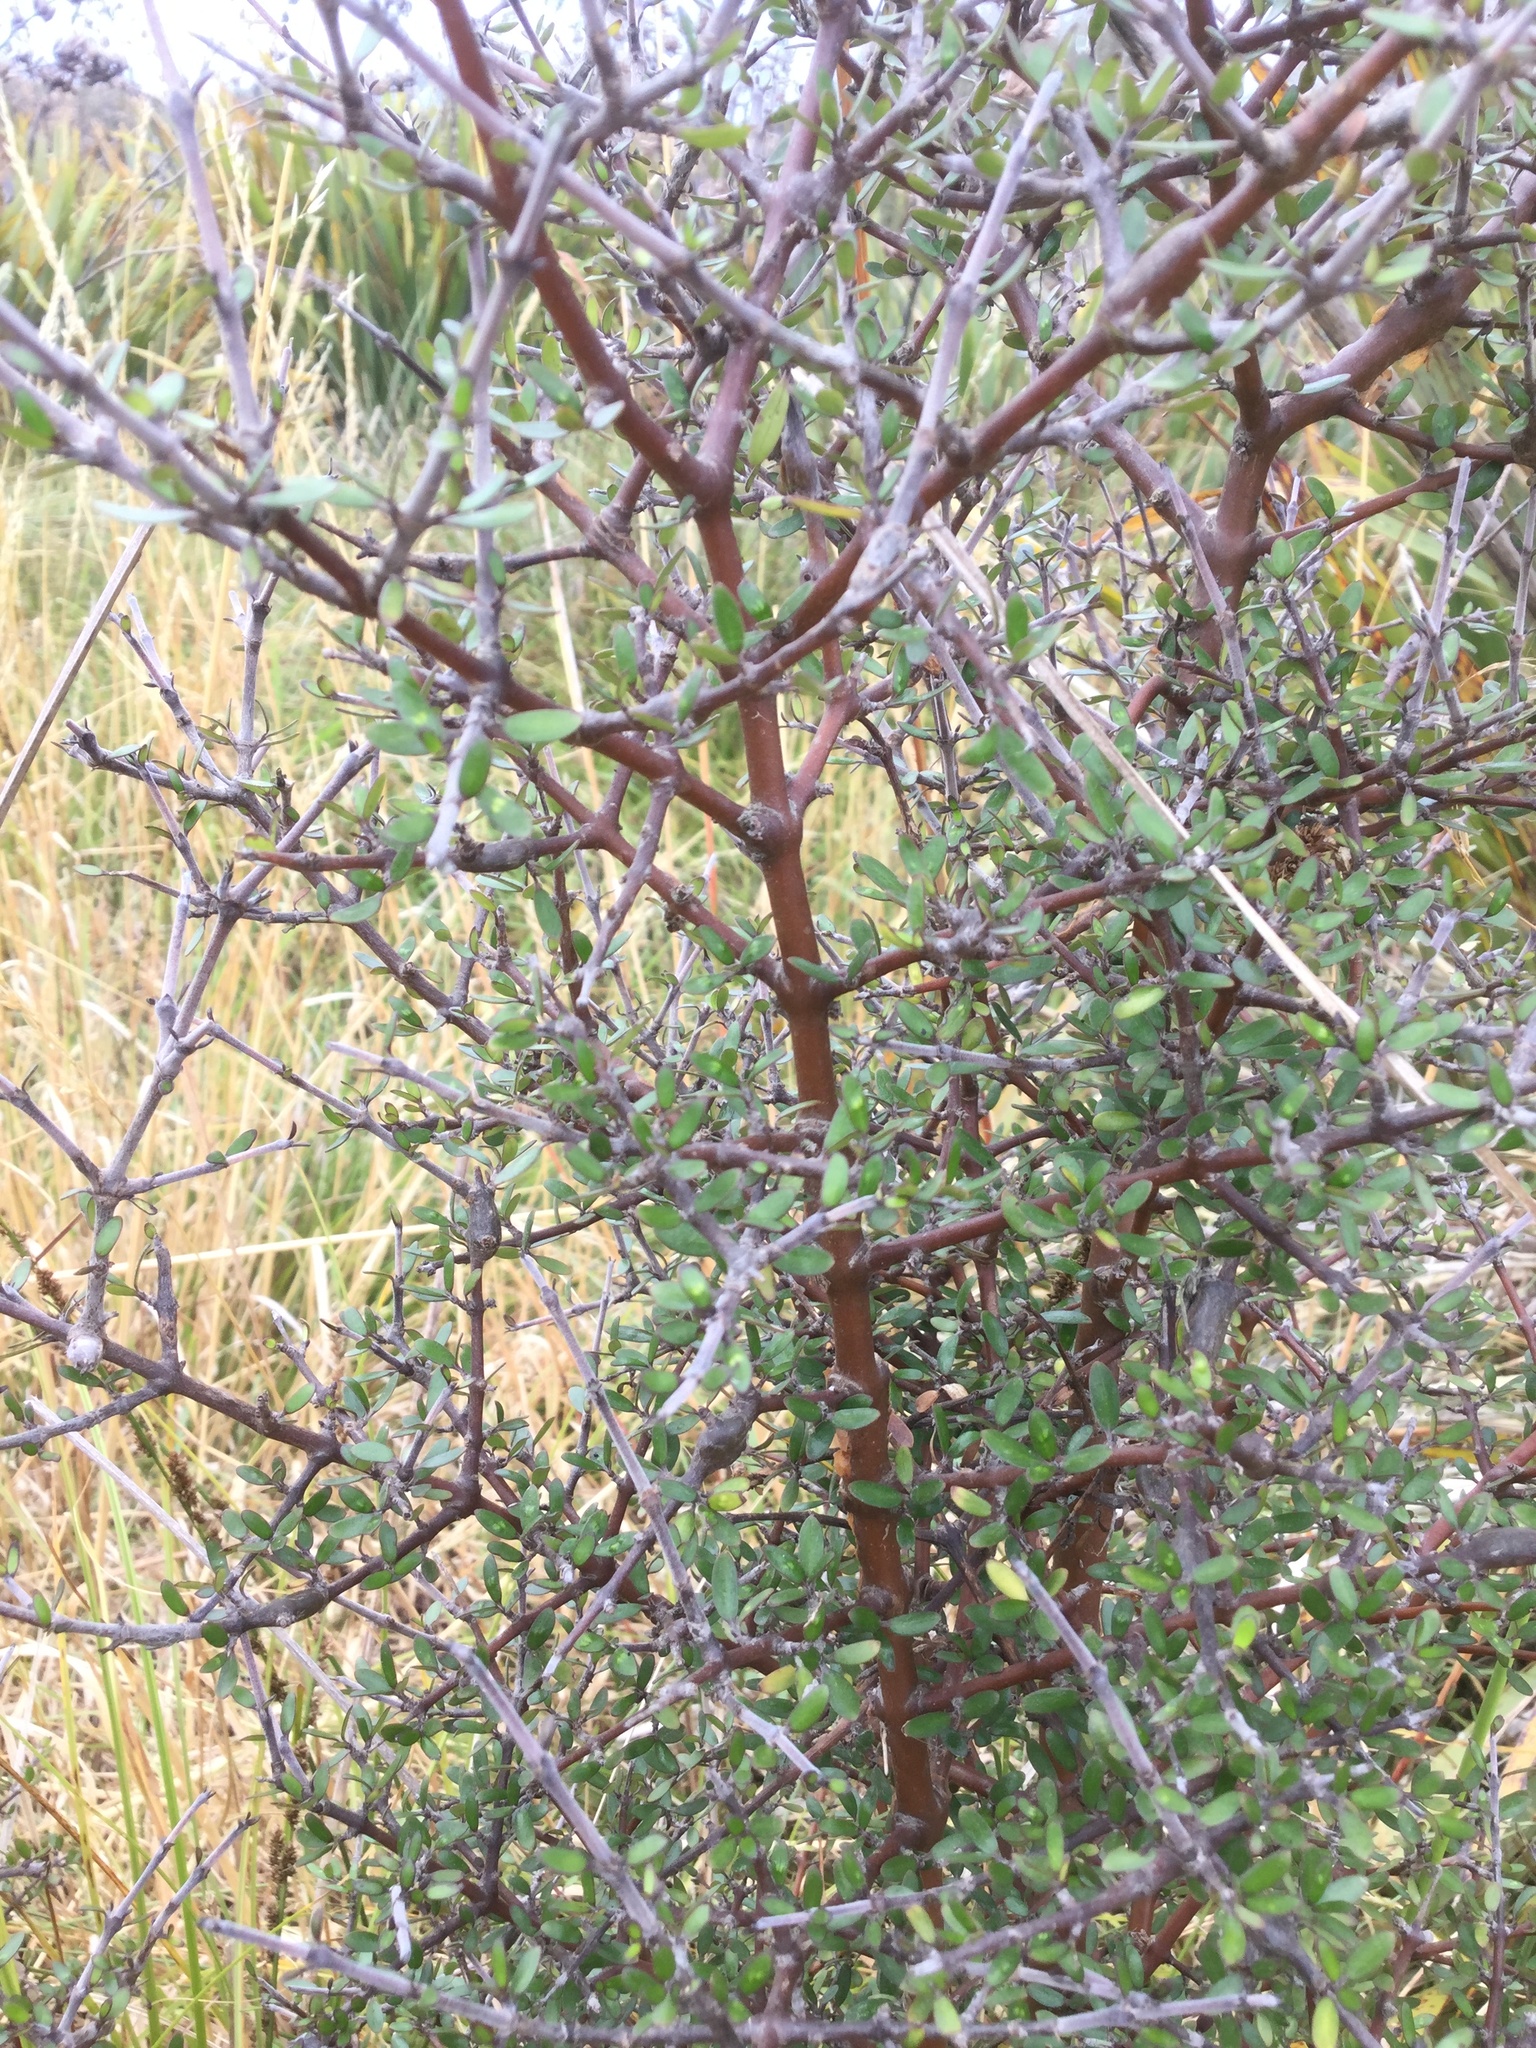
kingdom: Plantae
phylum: Tracheophyta
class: Magnoliopsida
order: Gentianales
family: Rubiaceae
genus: Coprosma
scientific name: Coprosma propinqua
